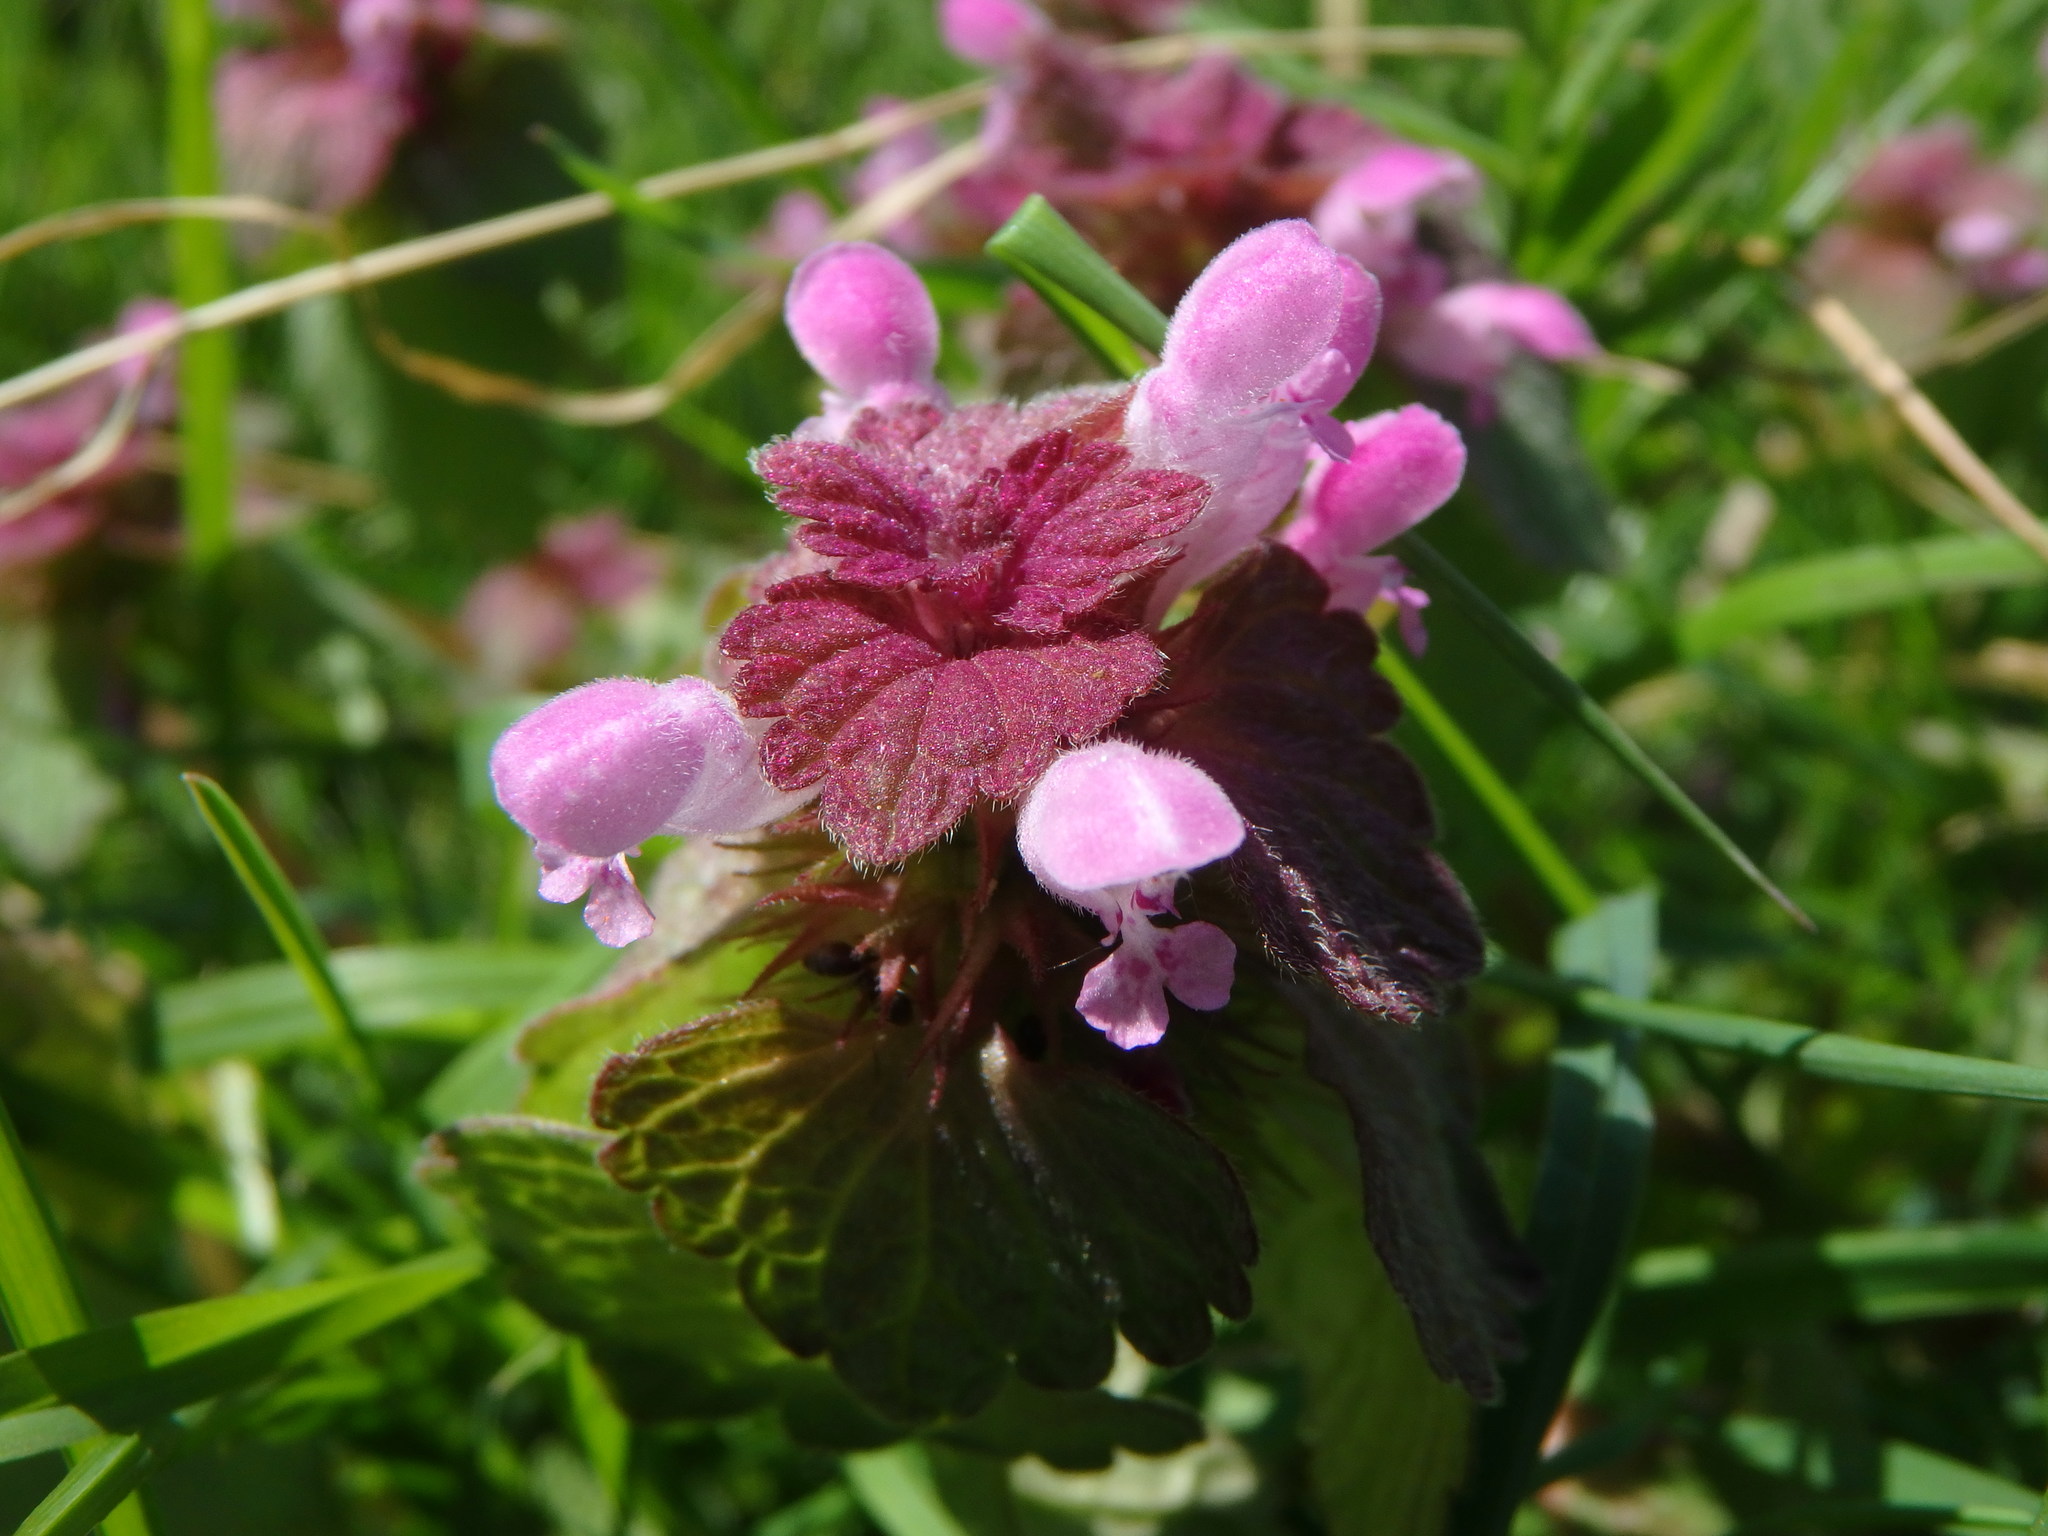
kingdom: Plantae
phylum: Tracheophyta
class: Magnoliopsida
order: Lamiales
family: Lamiaceae
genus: Lamium
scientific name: Lamium purpureum
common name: Red dead-nettle
